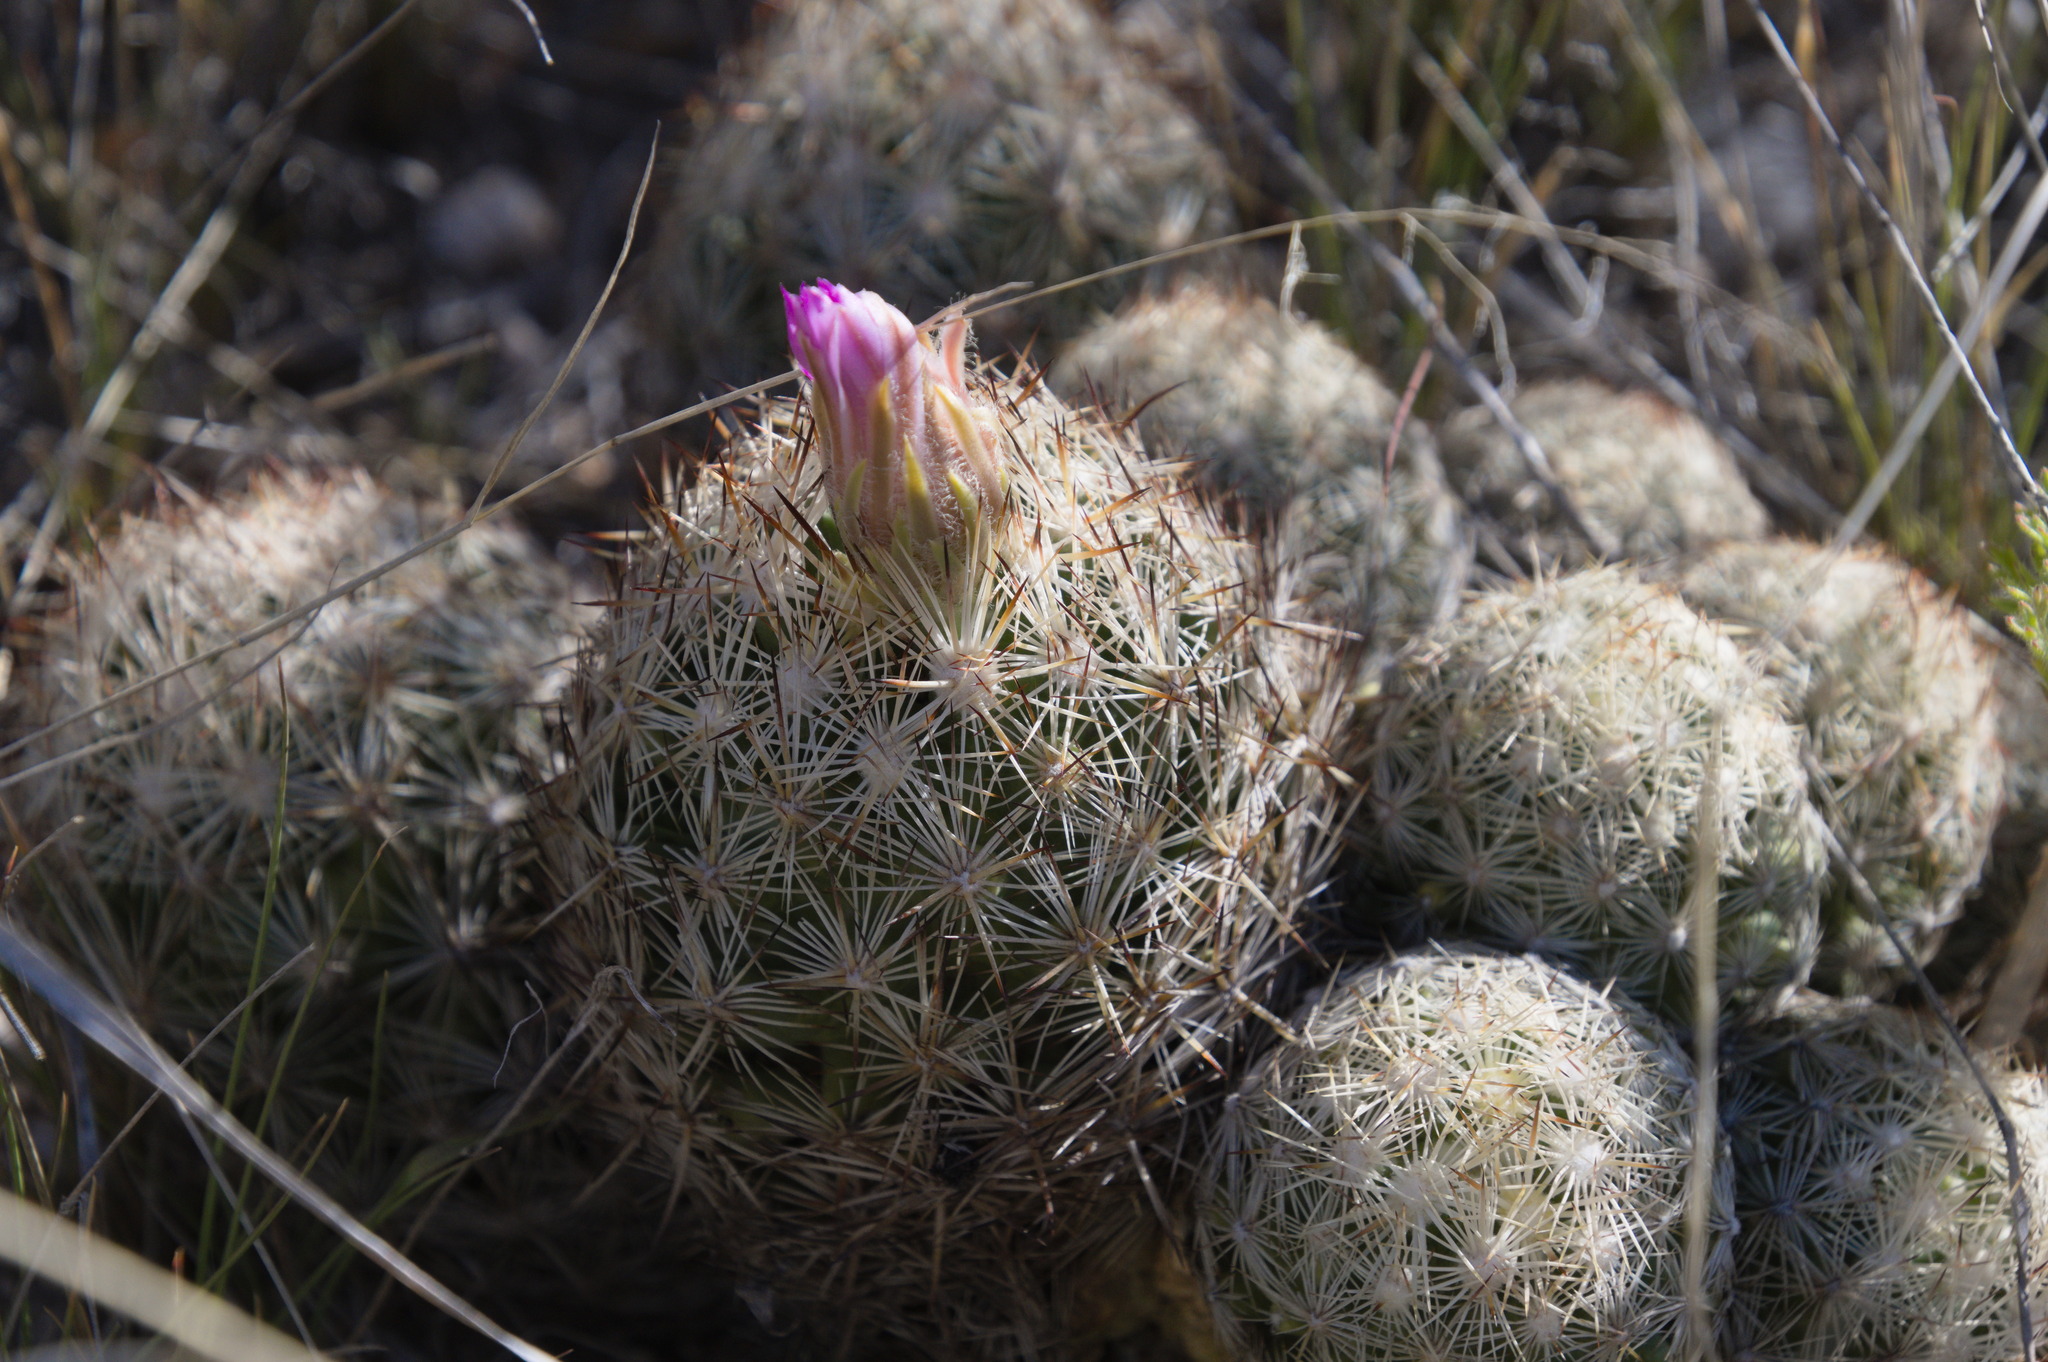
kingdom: Plantae
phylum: Tracheophyta
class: Magnoliopsida
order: Caryophyllales
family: Cactaceae
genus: Pelecyphora
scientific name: Pelecyphora vivipara
